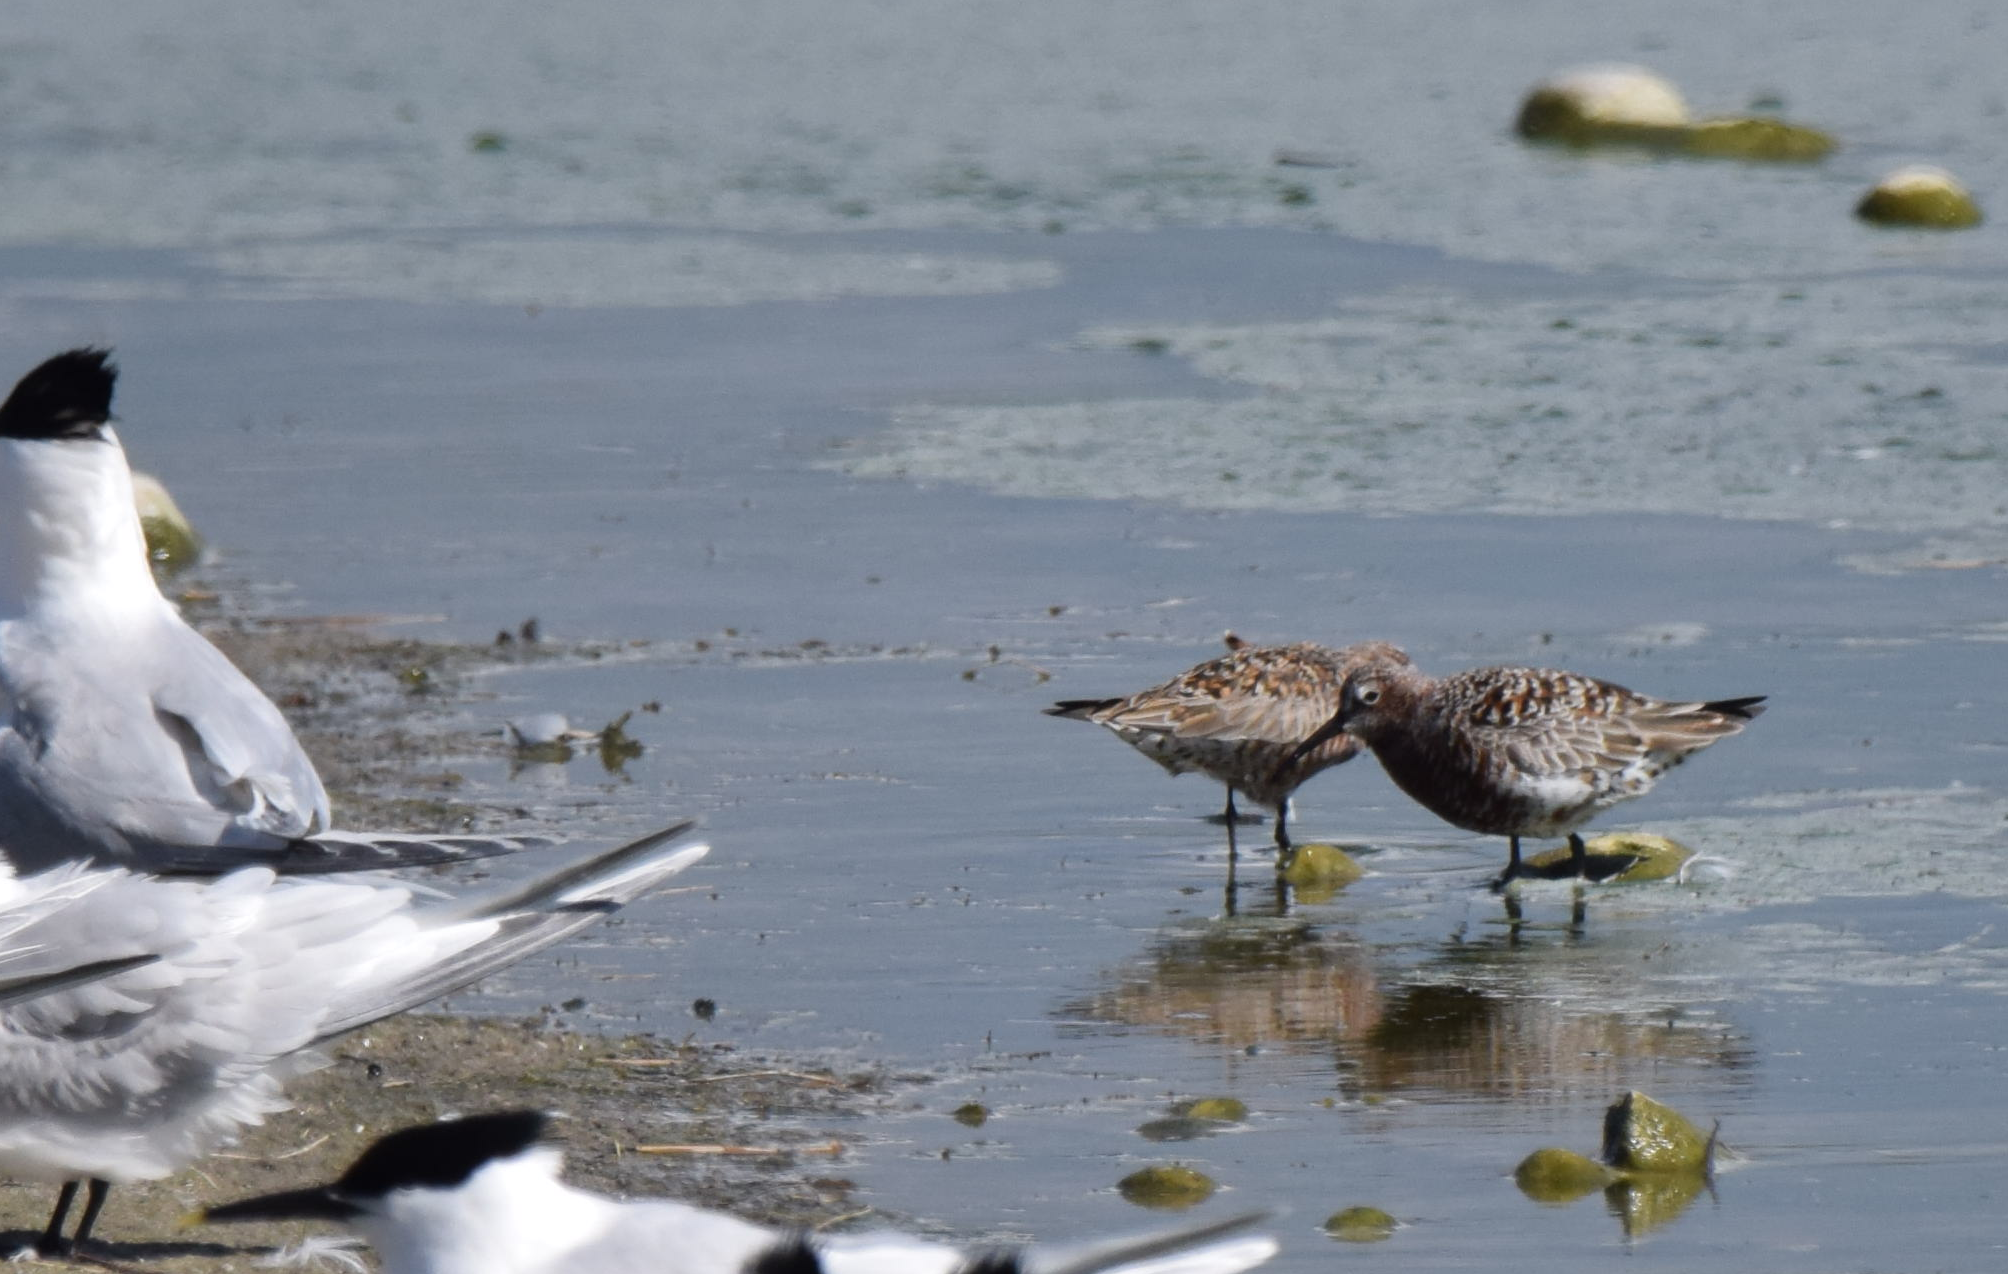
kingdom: Animalia
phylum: Chordata
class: Aves
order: Charadriiformes
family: Scolopacidae
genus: Calidris
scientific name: Calidris ferruginea
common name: Curlew sandpiper
